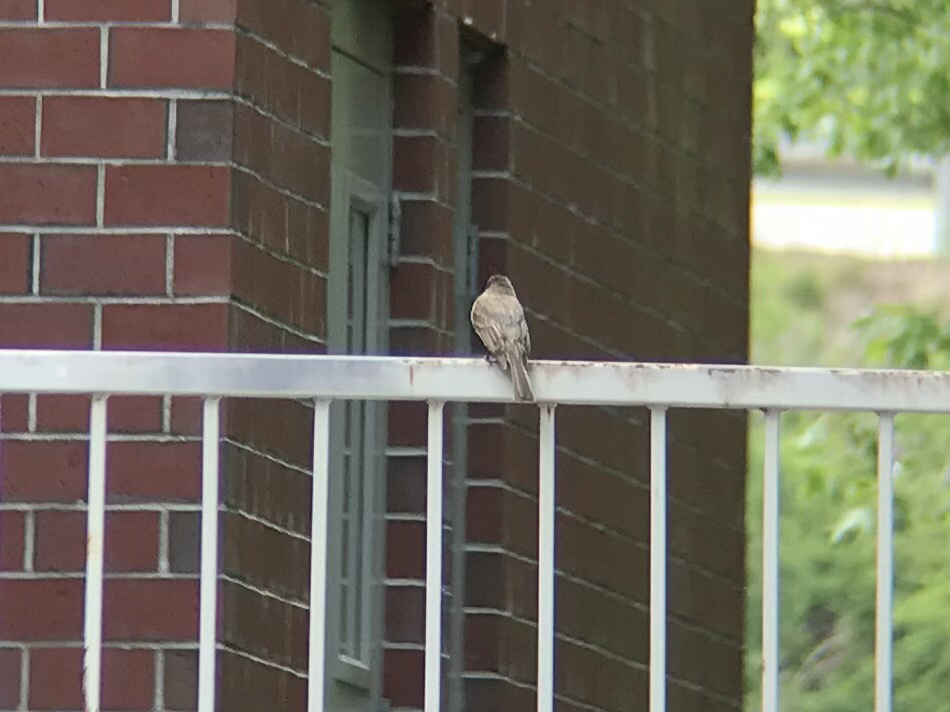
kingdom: Animalia
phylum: Chordata
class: Aves
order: Passeriformes
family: Tyrannidae
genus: Sayornis
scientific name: Sayornis phoebe
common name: Eastern phoebe
